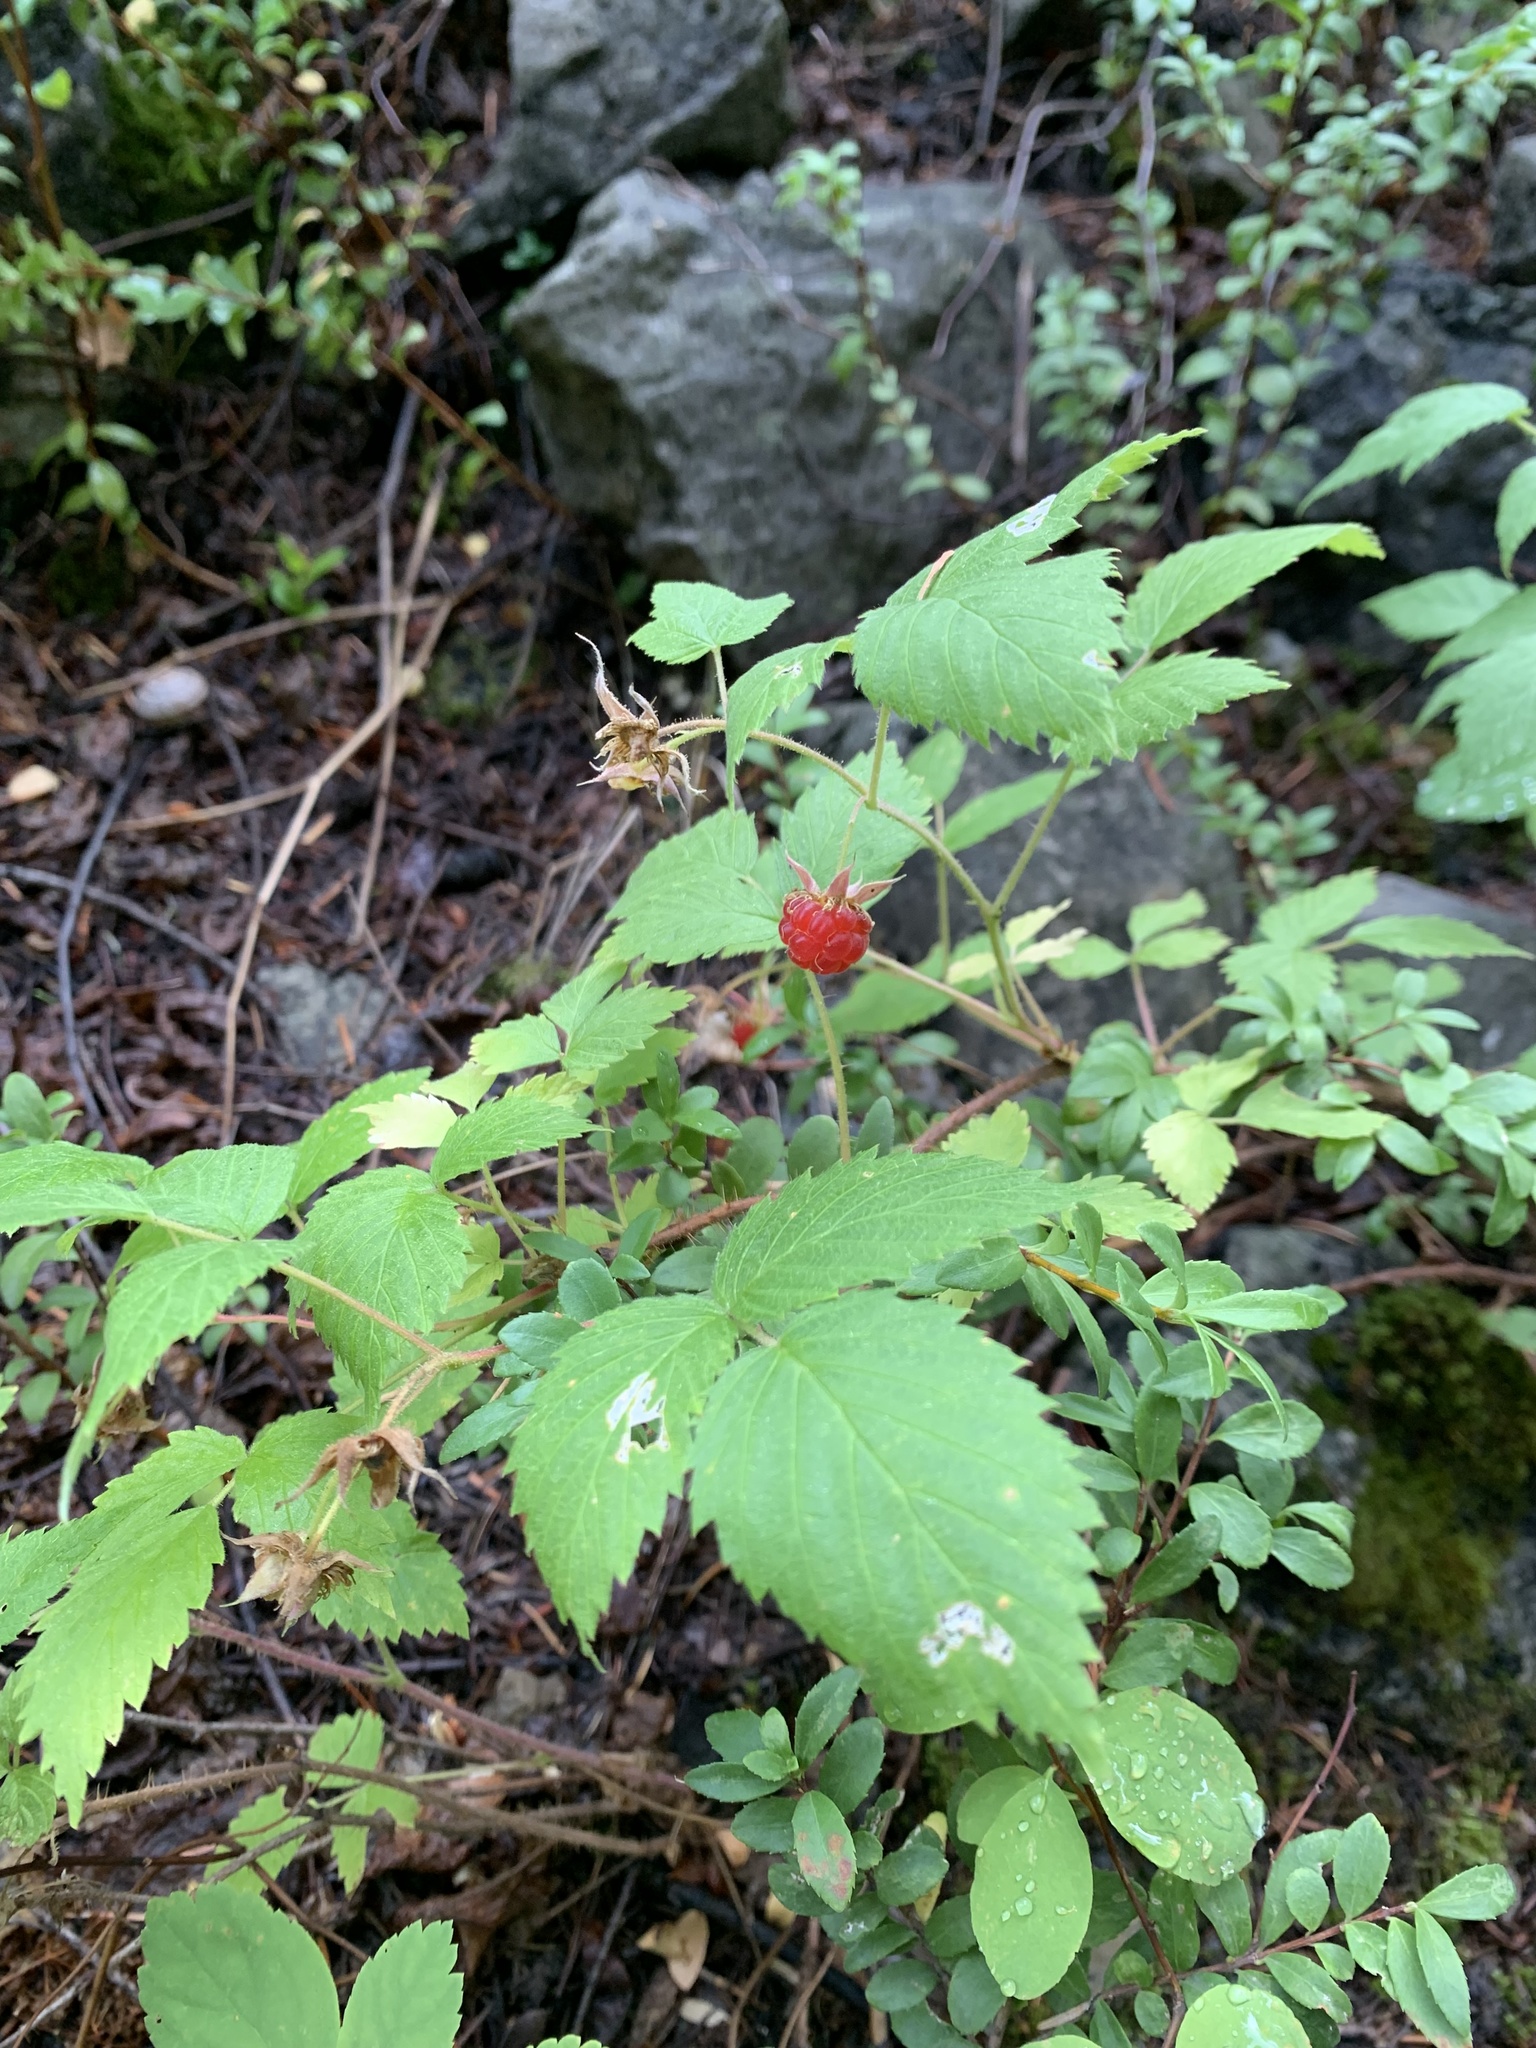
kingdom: Plantae
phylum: Tracheophyta
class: Magnoliopsida
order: Rosales
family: Rosaceae
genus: Rubus
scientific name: Rubus idaeus
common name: Raspberry
